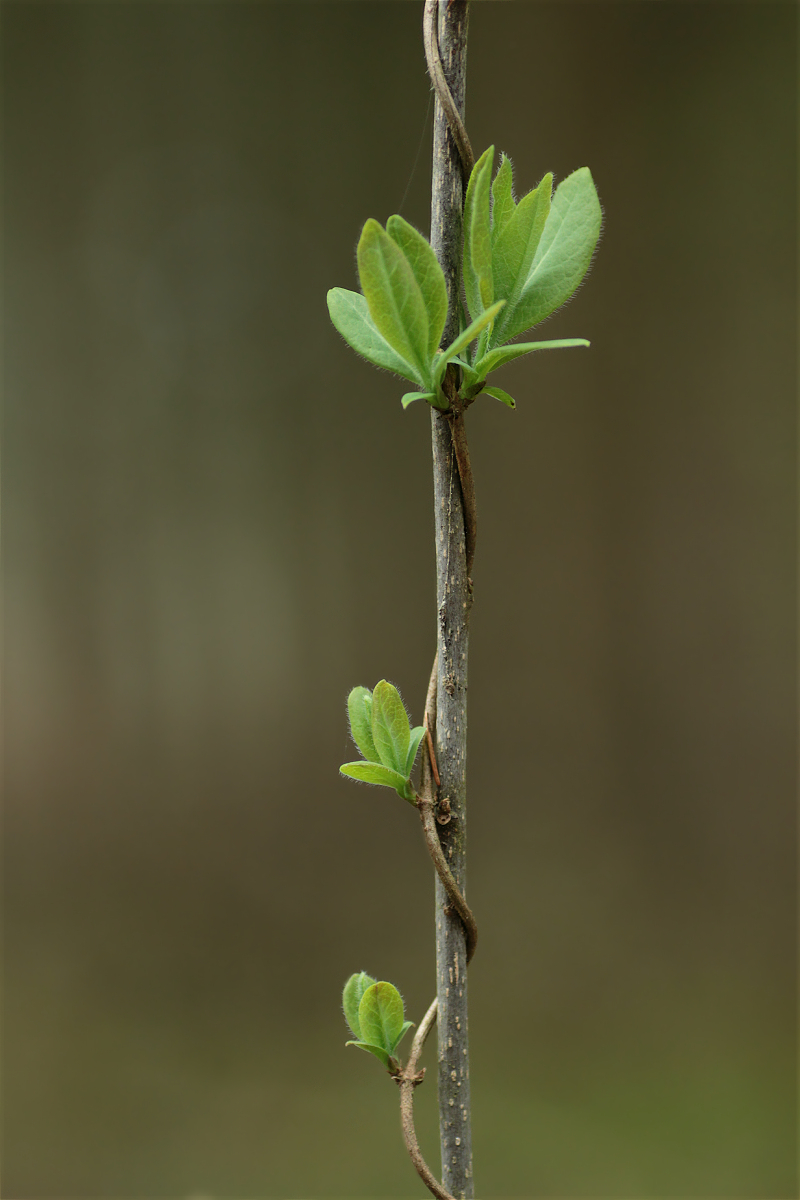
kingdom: Plantae
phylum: Tracheophyta
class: Magnoliopsida
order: Dipsacales
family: Caprifoliaceae
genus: Lonicera
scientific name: Lonicera periclymenum
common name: European honeysuckle
